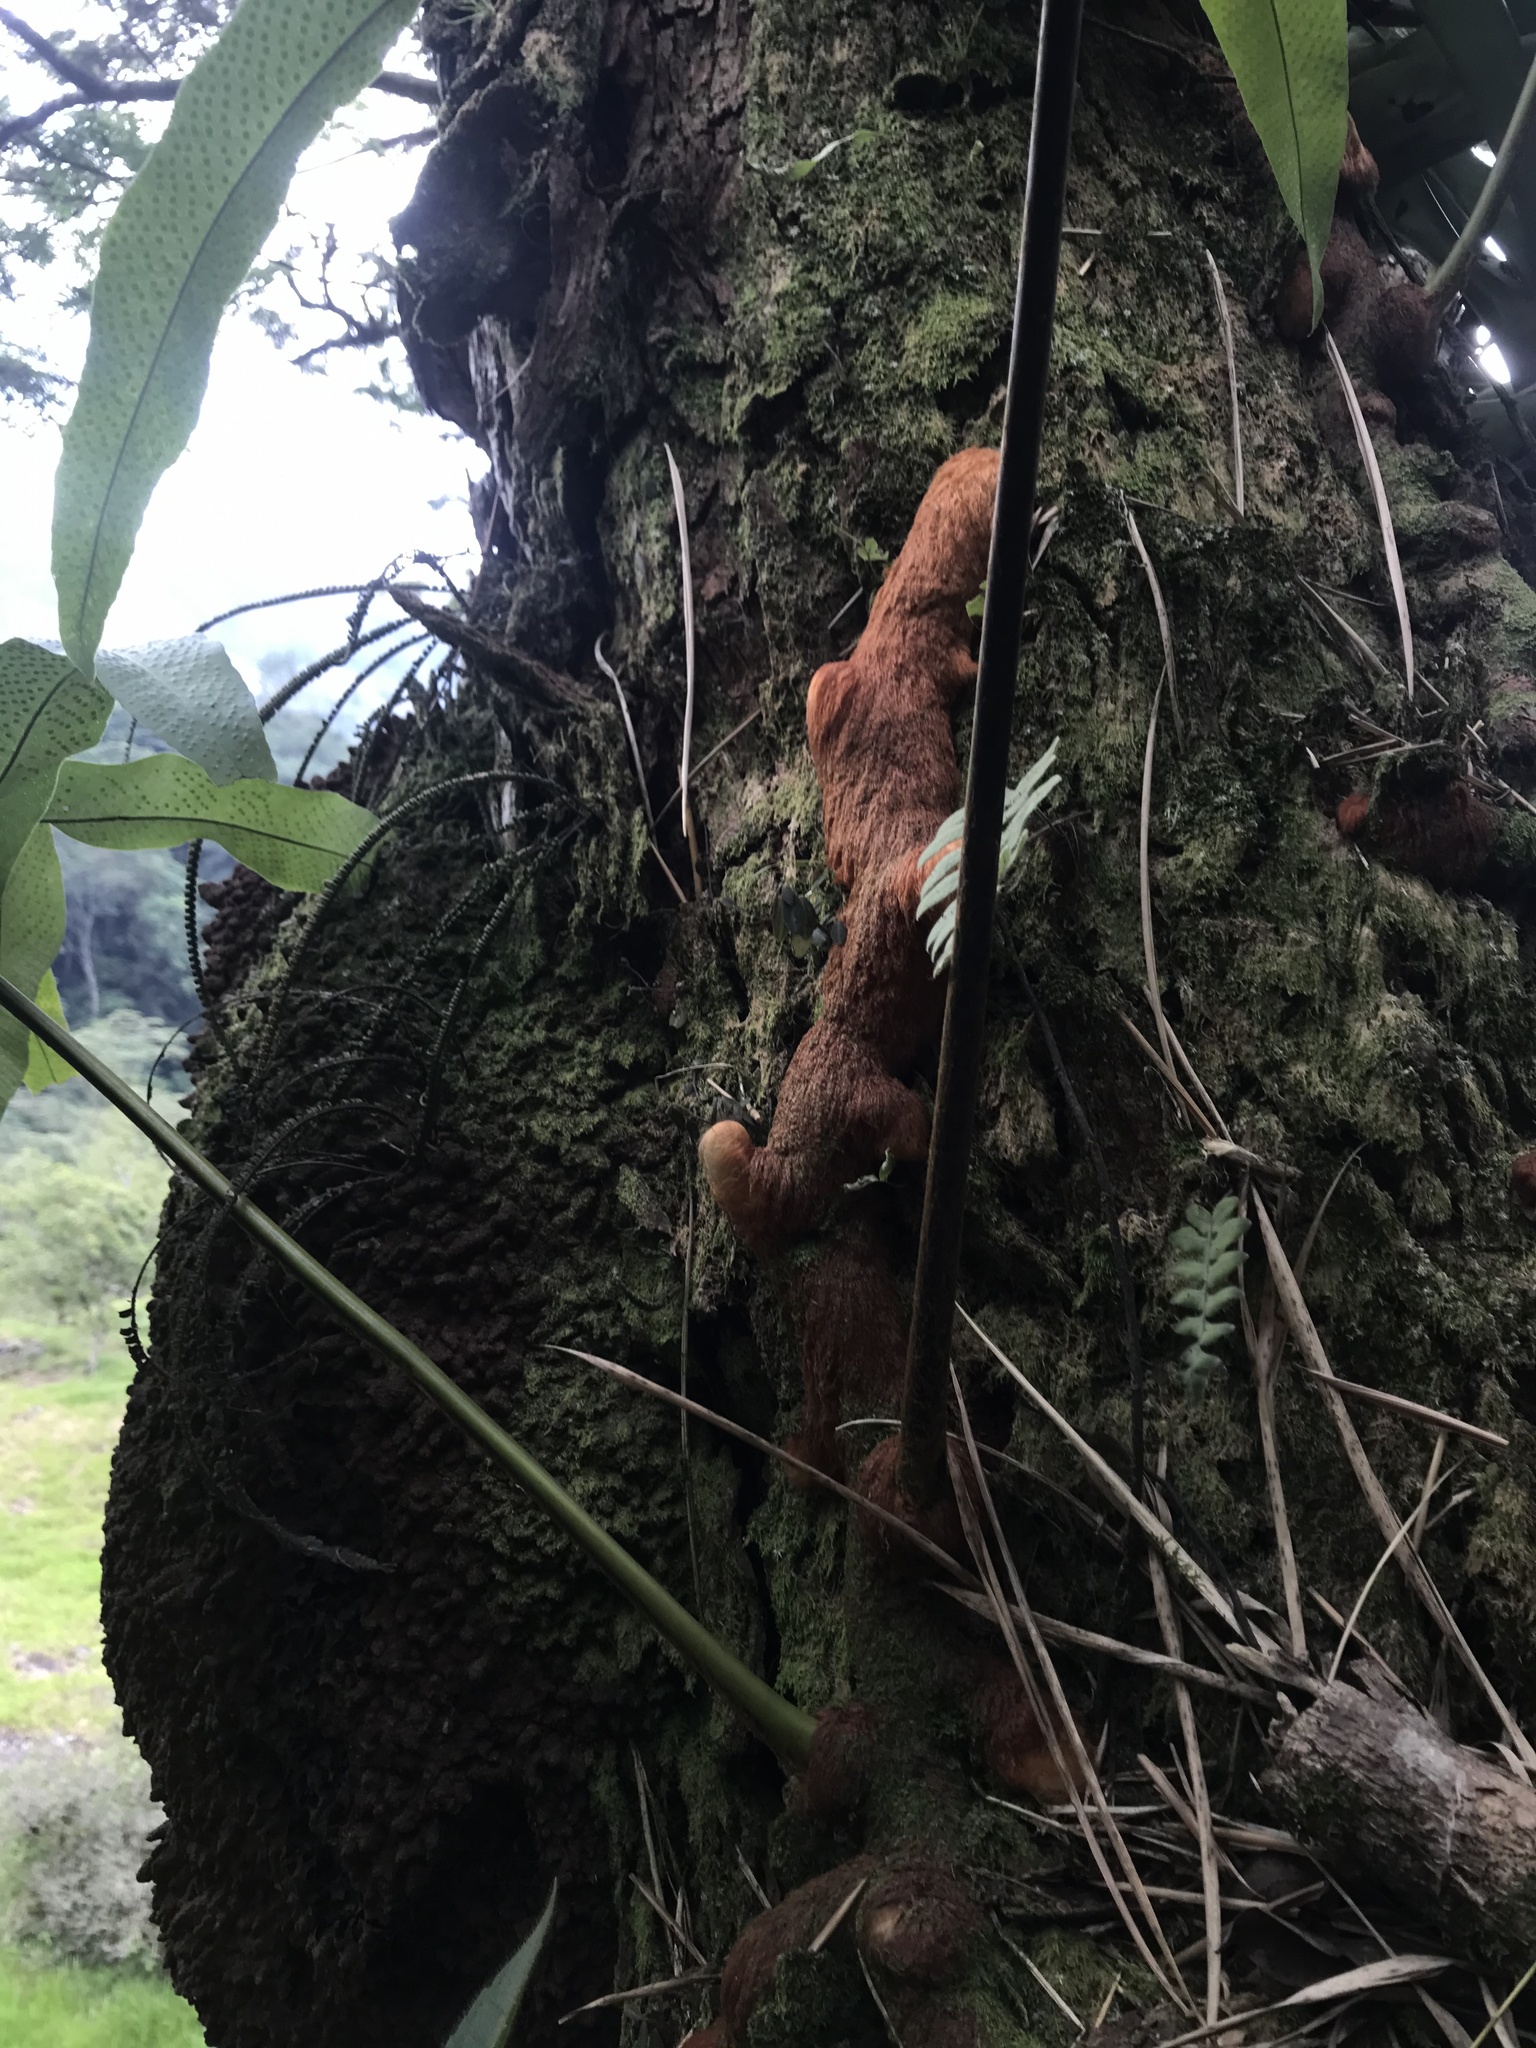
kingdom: Plantae
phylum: Tracheophyta
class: Polypodiopsida
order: Polypodiales
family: Polypodiaceae
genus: Phlebodium
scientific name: Phlebodium decumanum
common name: Golden polypod
